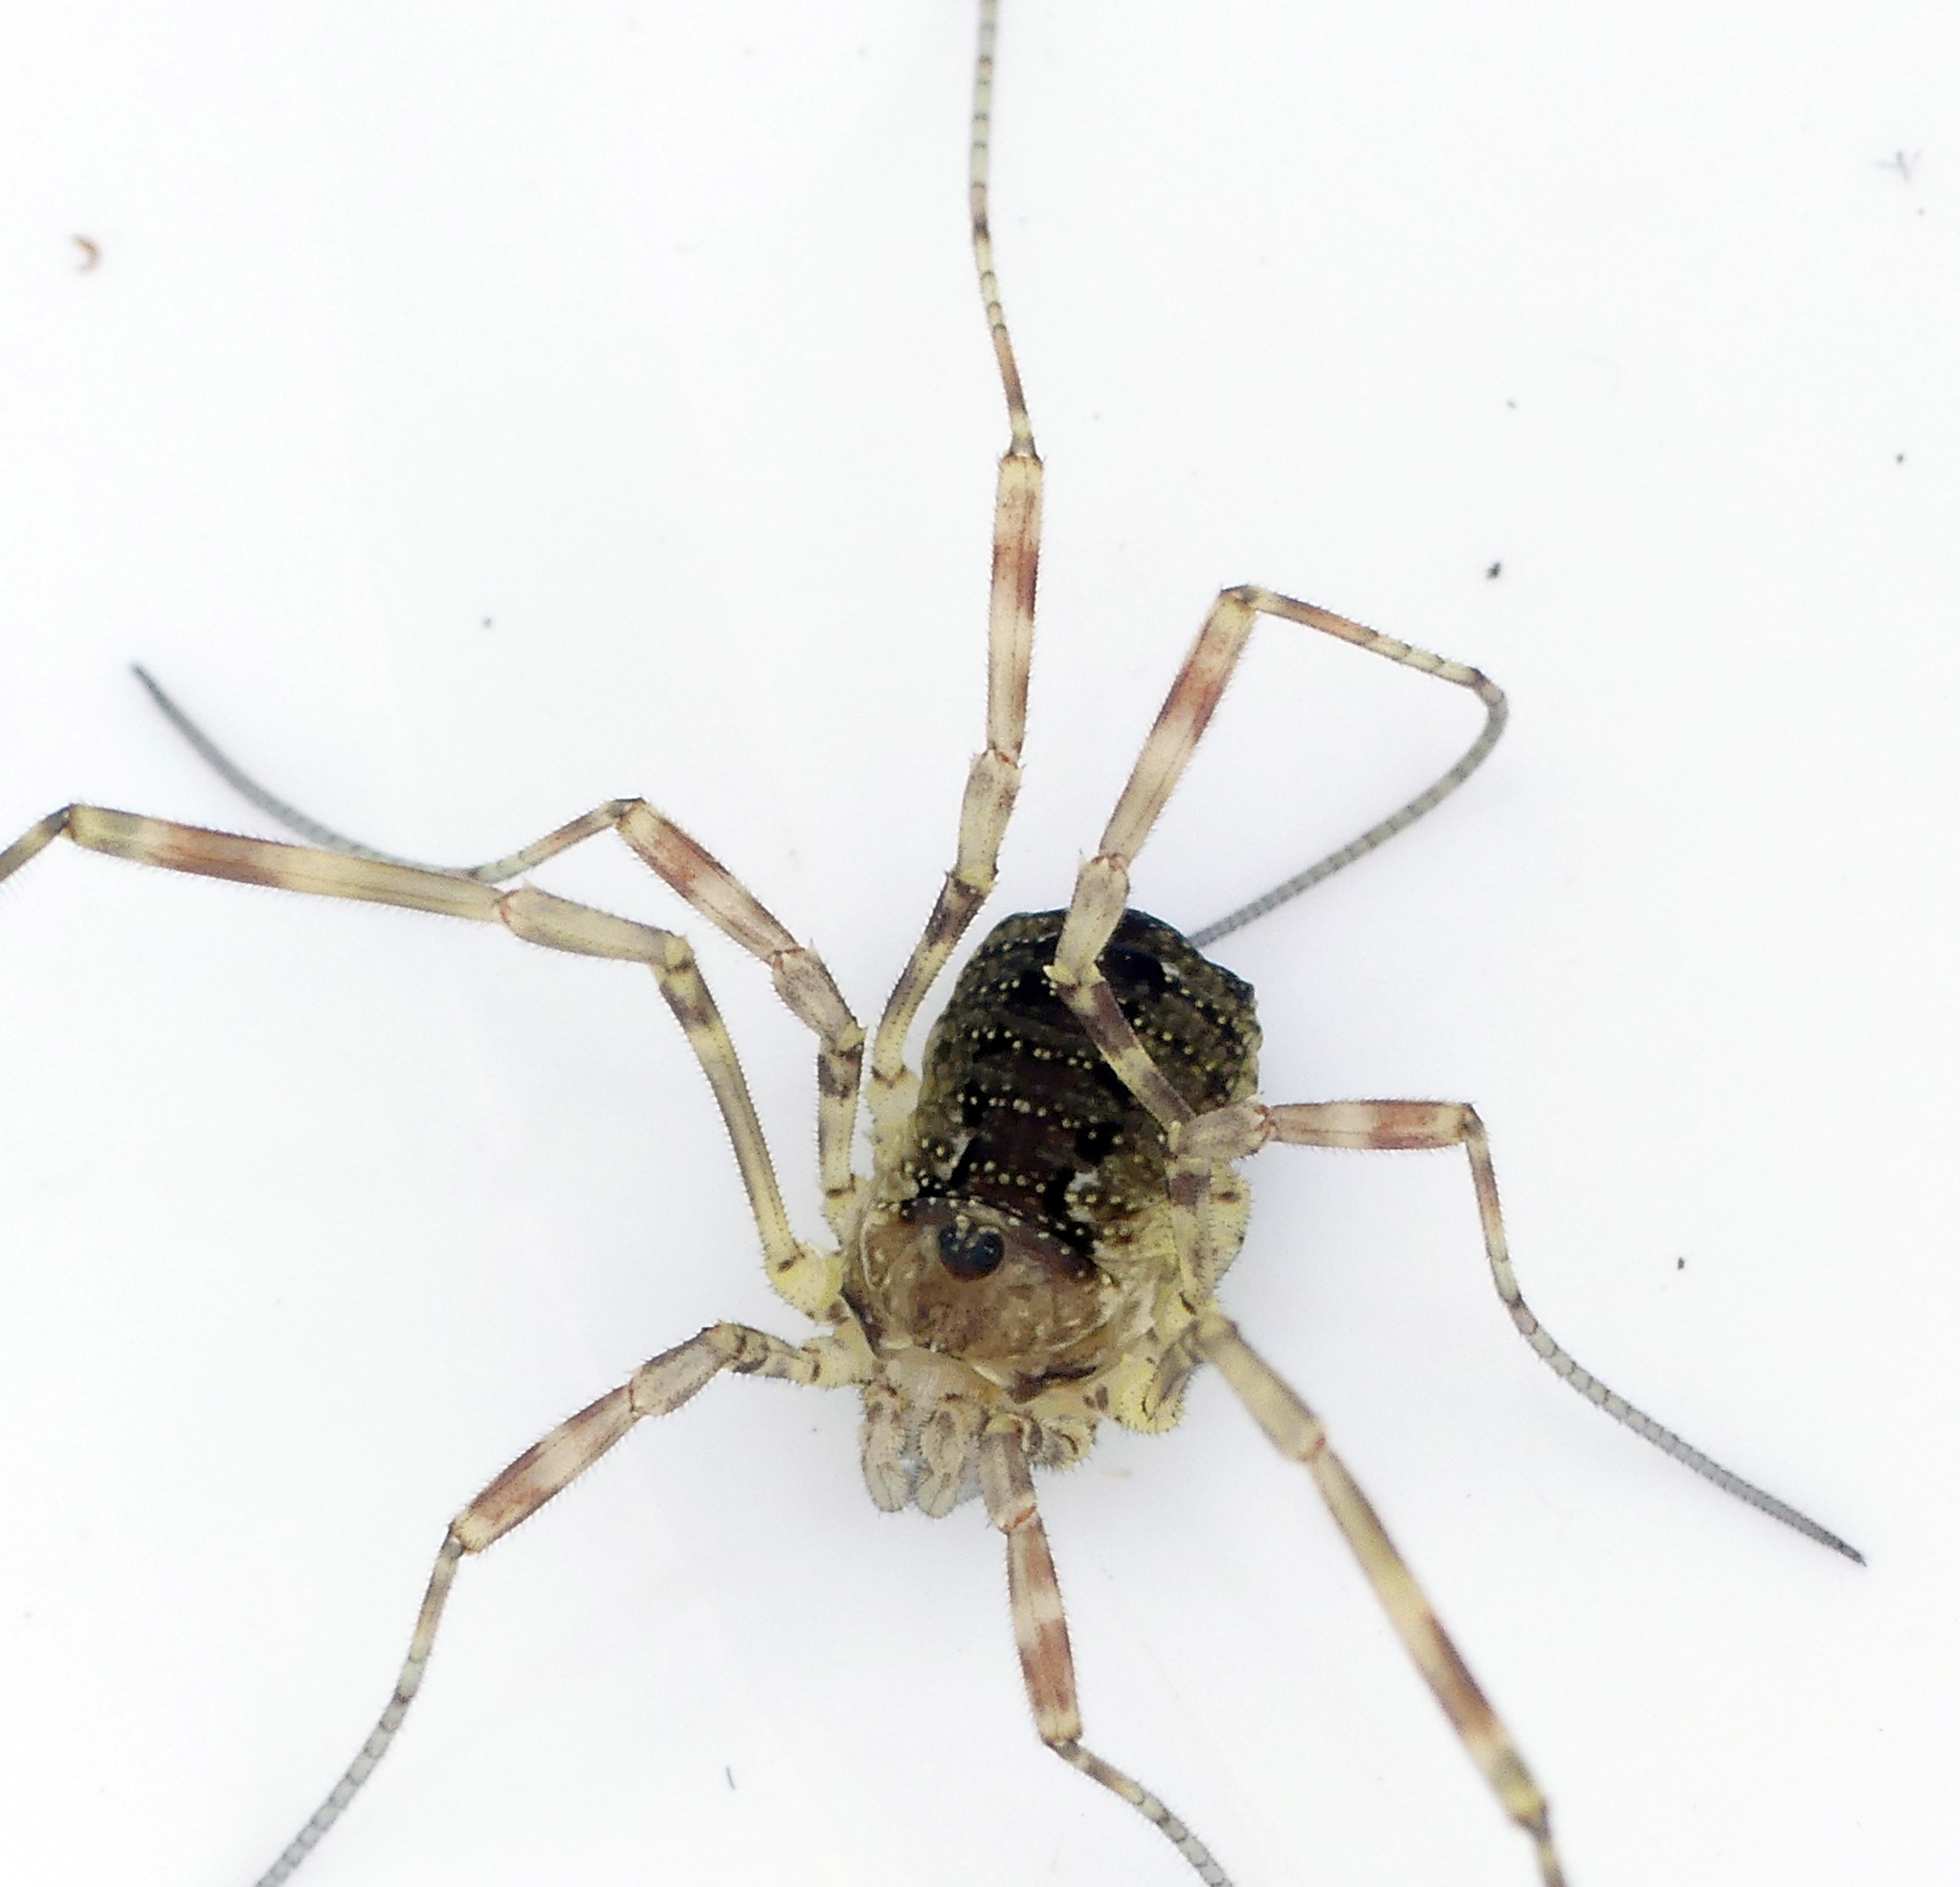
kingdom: Animalia
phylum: Arthropoda
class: Arachnida
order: Opiliones
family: Phalangiidae
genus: Oligolophus
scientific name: Oligolophus hansenii
